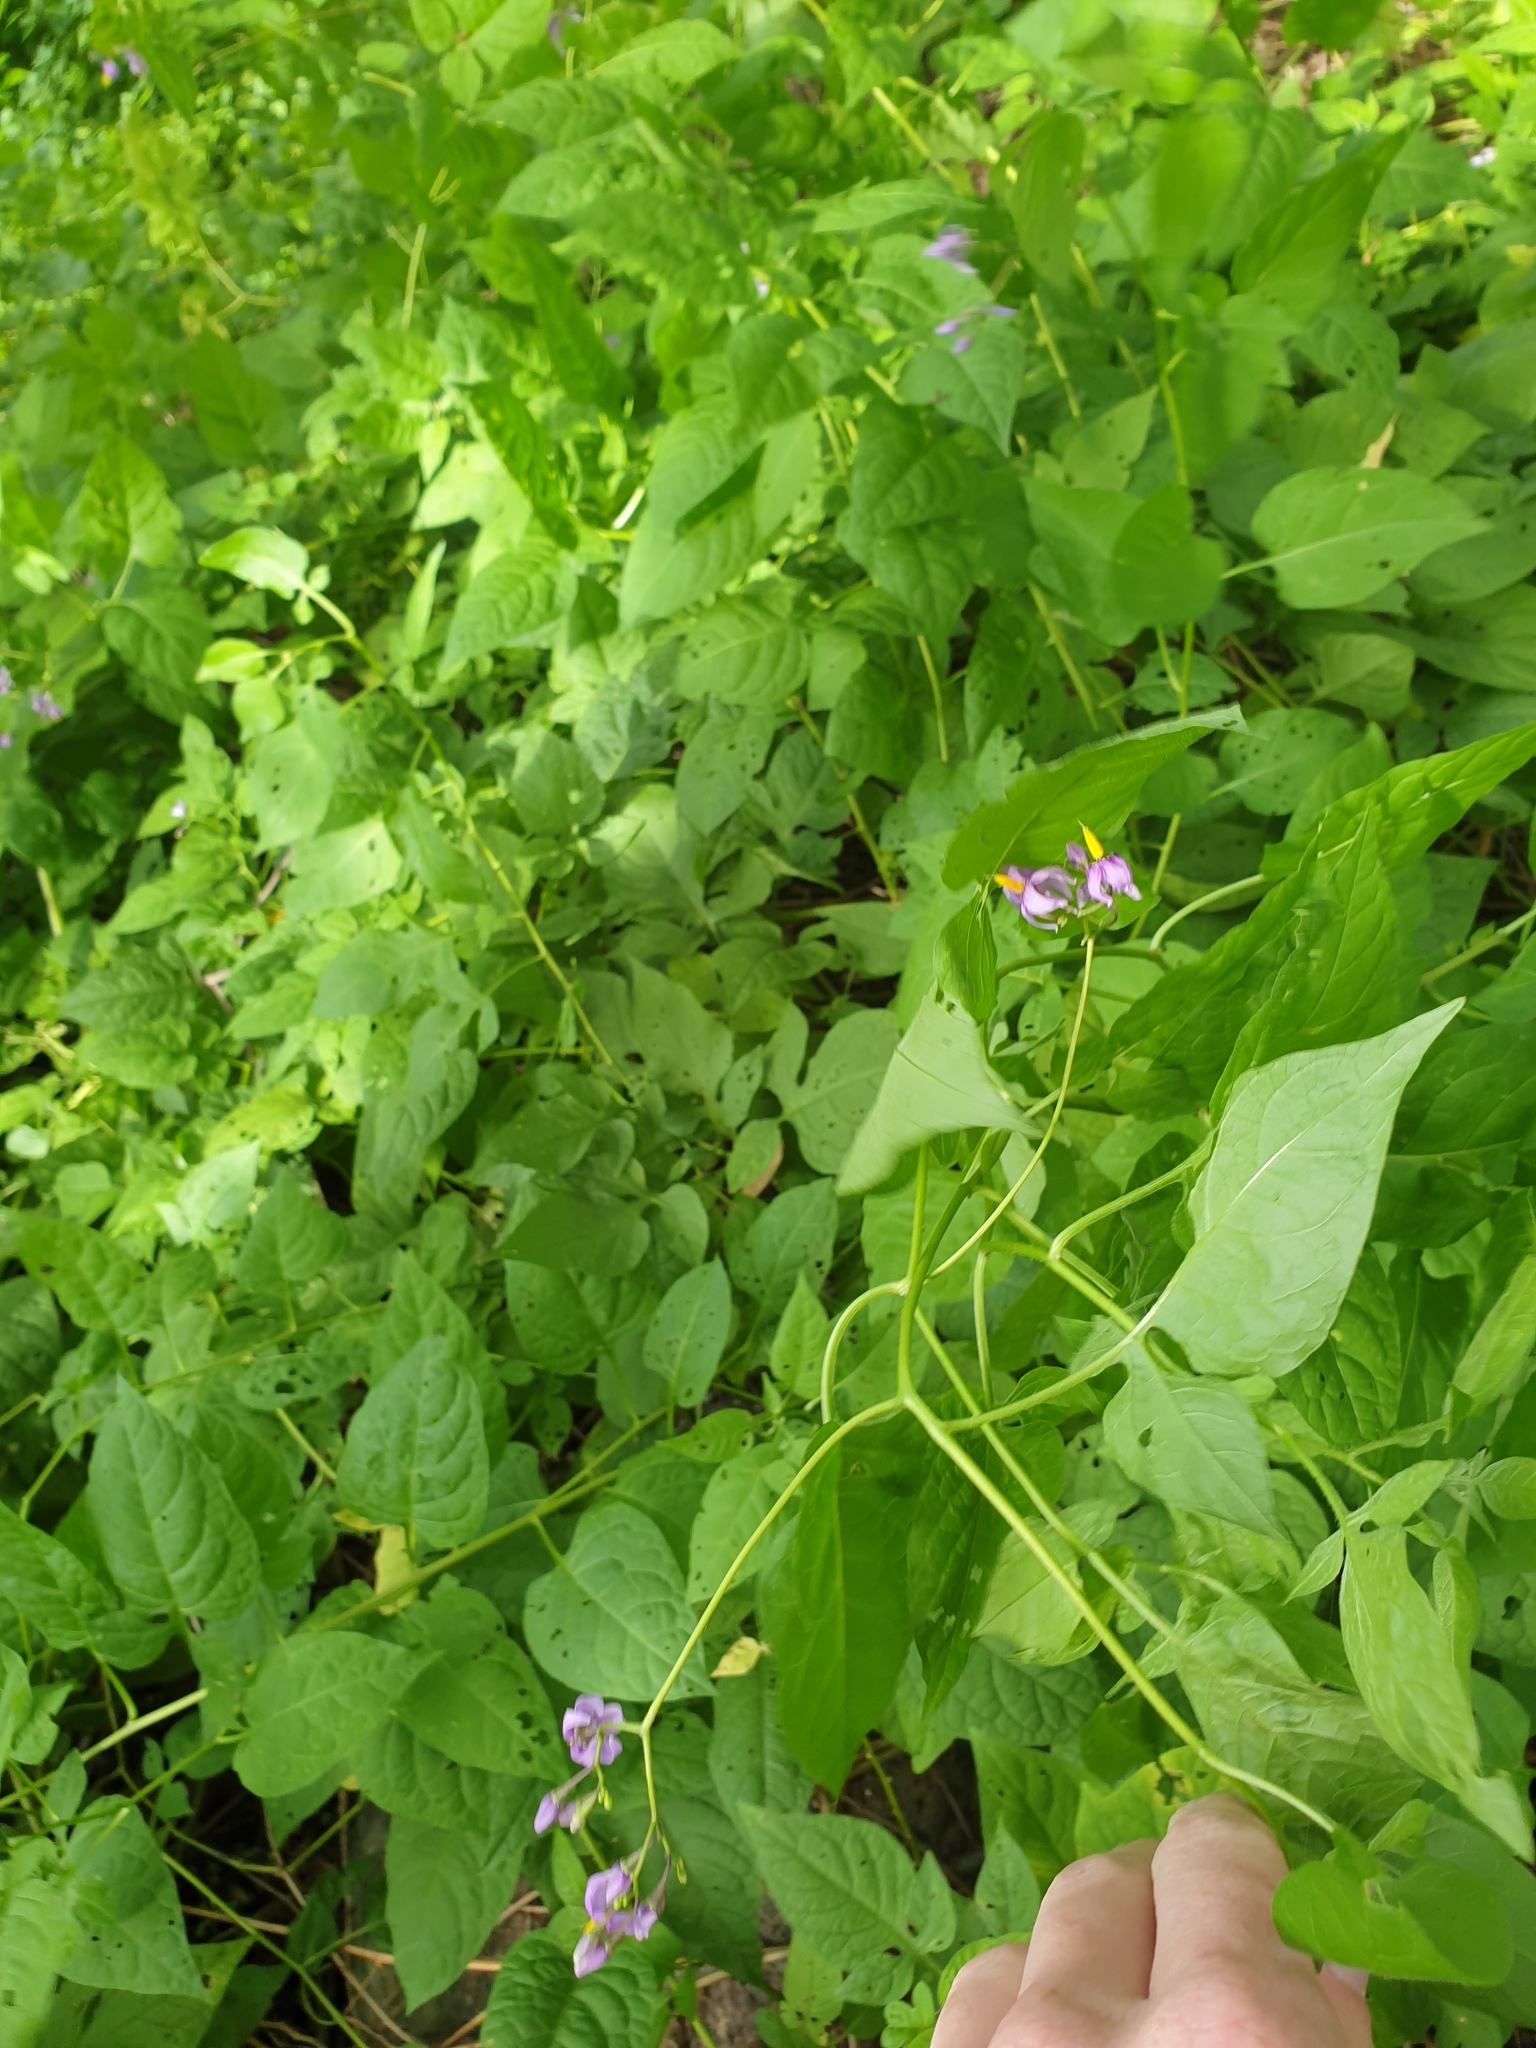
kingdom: Plantae
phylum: Tracheophyta
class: Magnoliopsida
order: Solanales
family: Solanaceae
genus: Solanum
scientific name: Solanum dulcamara
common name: Climbing nightshade
